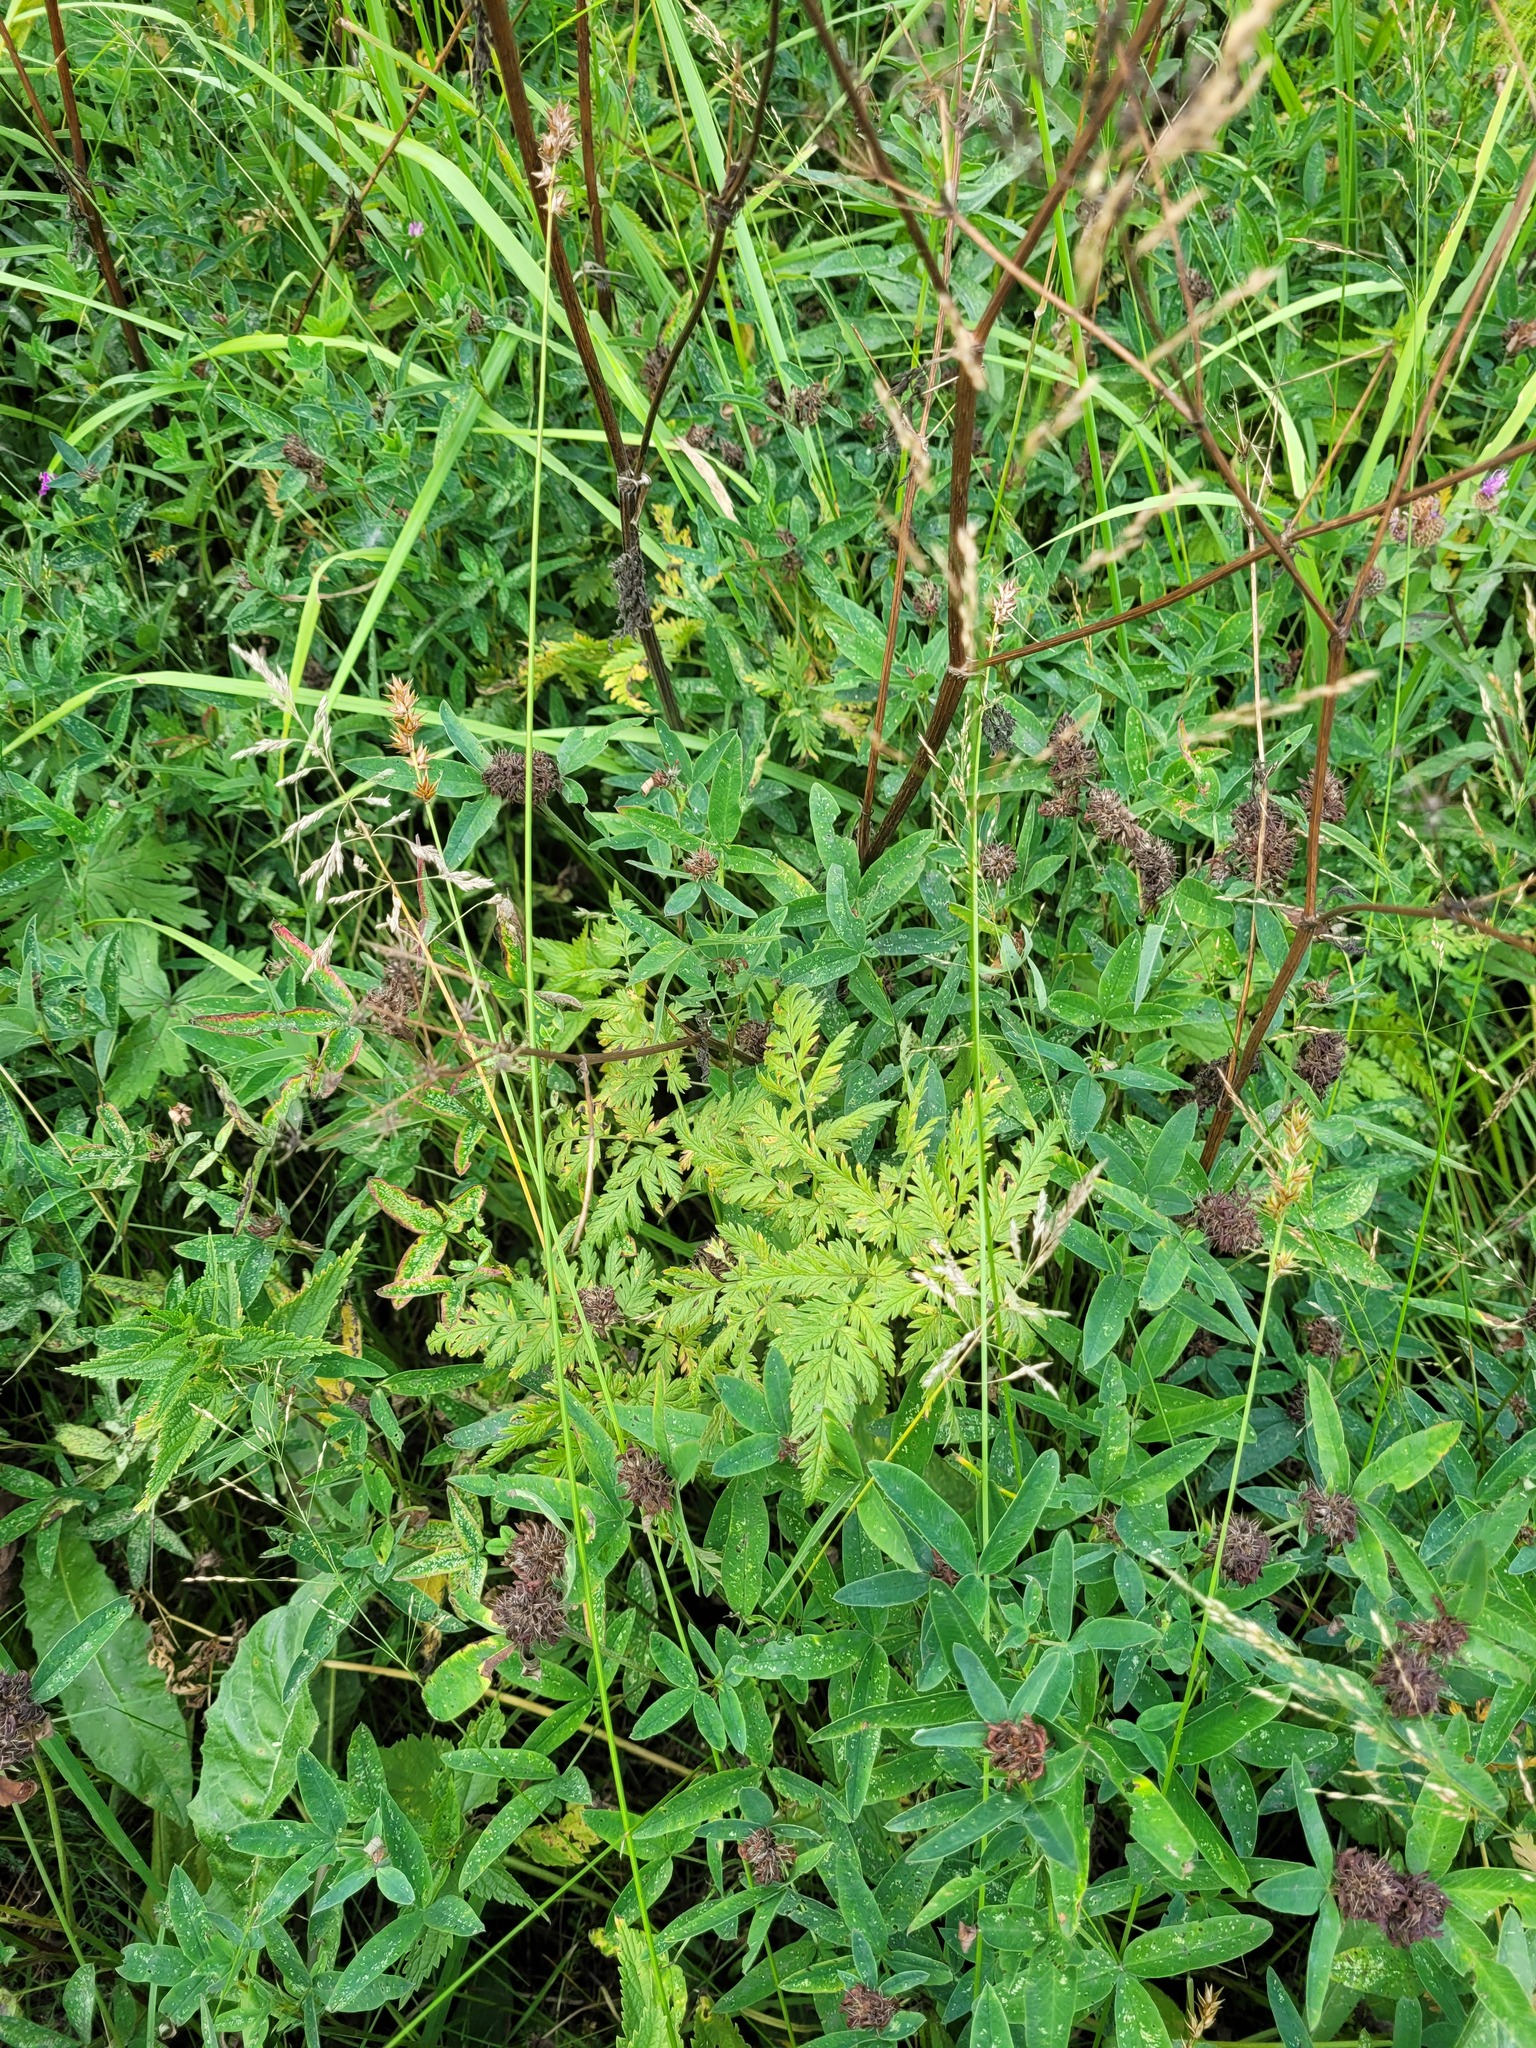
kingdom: Plantae
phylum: Tracheophyta
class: Magnoliopsida
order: Apiales
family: Apiaceae
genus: Anthriscus
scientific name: Anthriscus sylvestris
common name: Cow parsley
